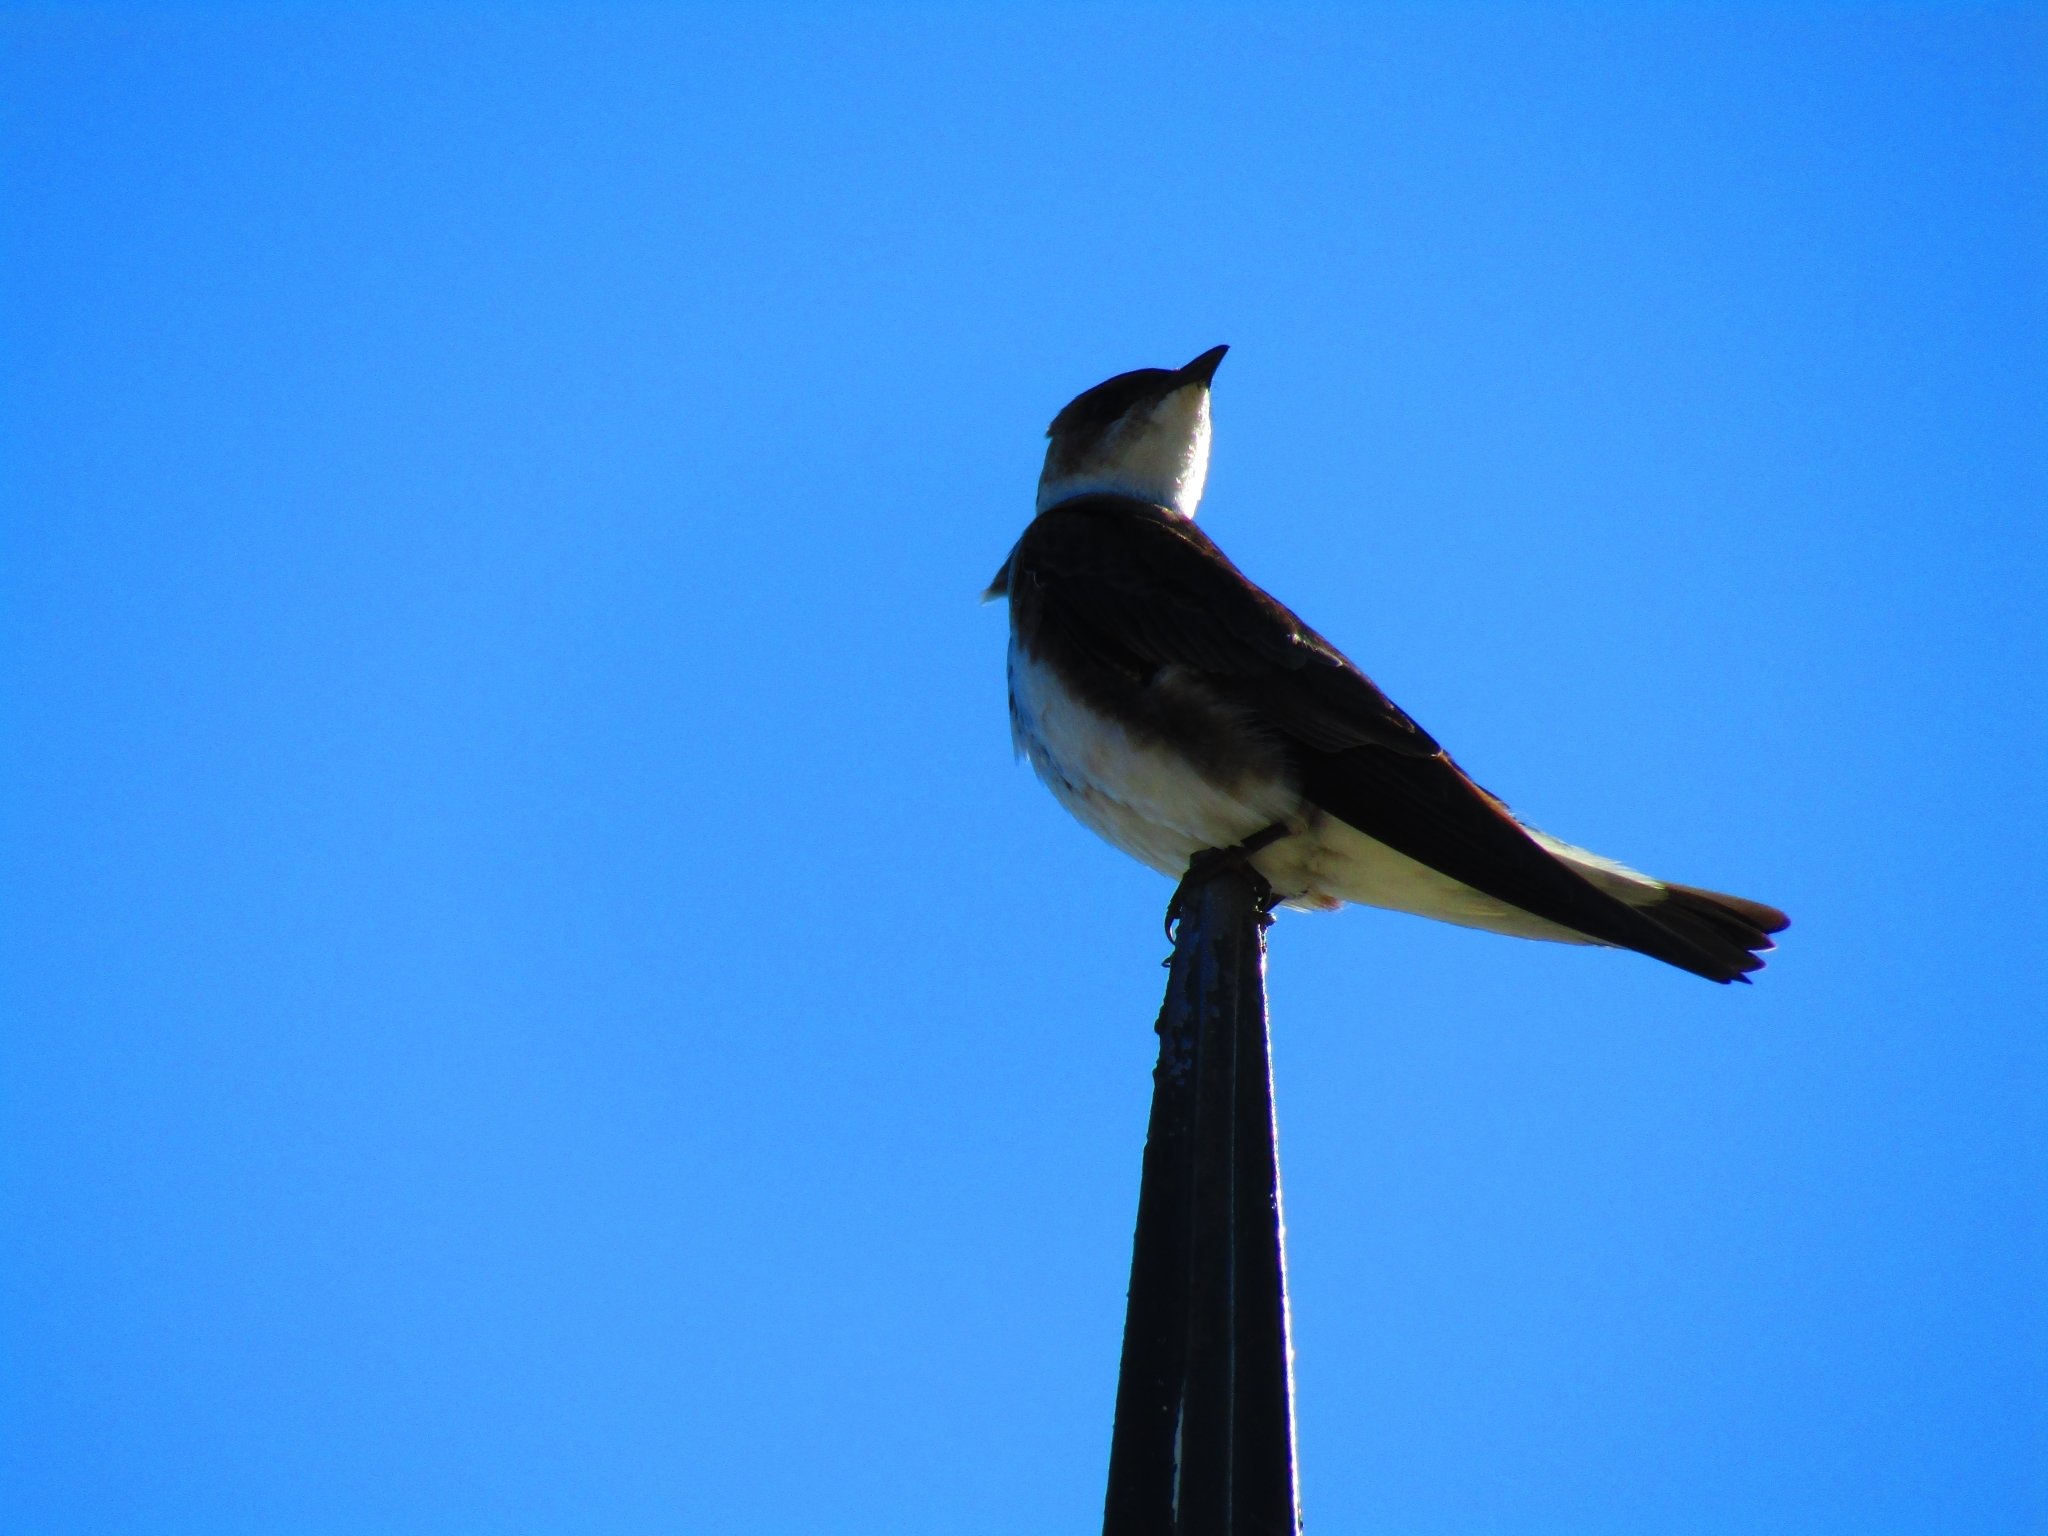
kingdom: Animalia
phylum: Chordata
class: Aves
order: Passeriformes
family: Hirundinidae
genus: Progne
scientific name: Progne tapera
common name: Brown-chested martin
